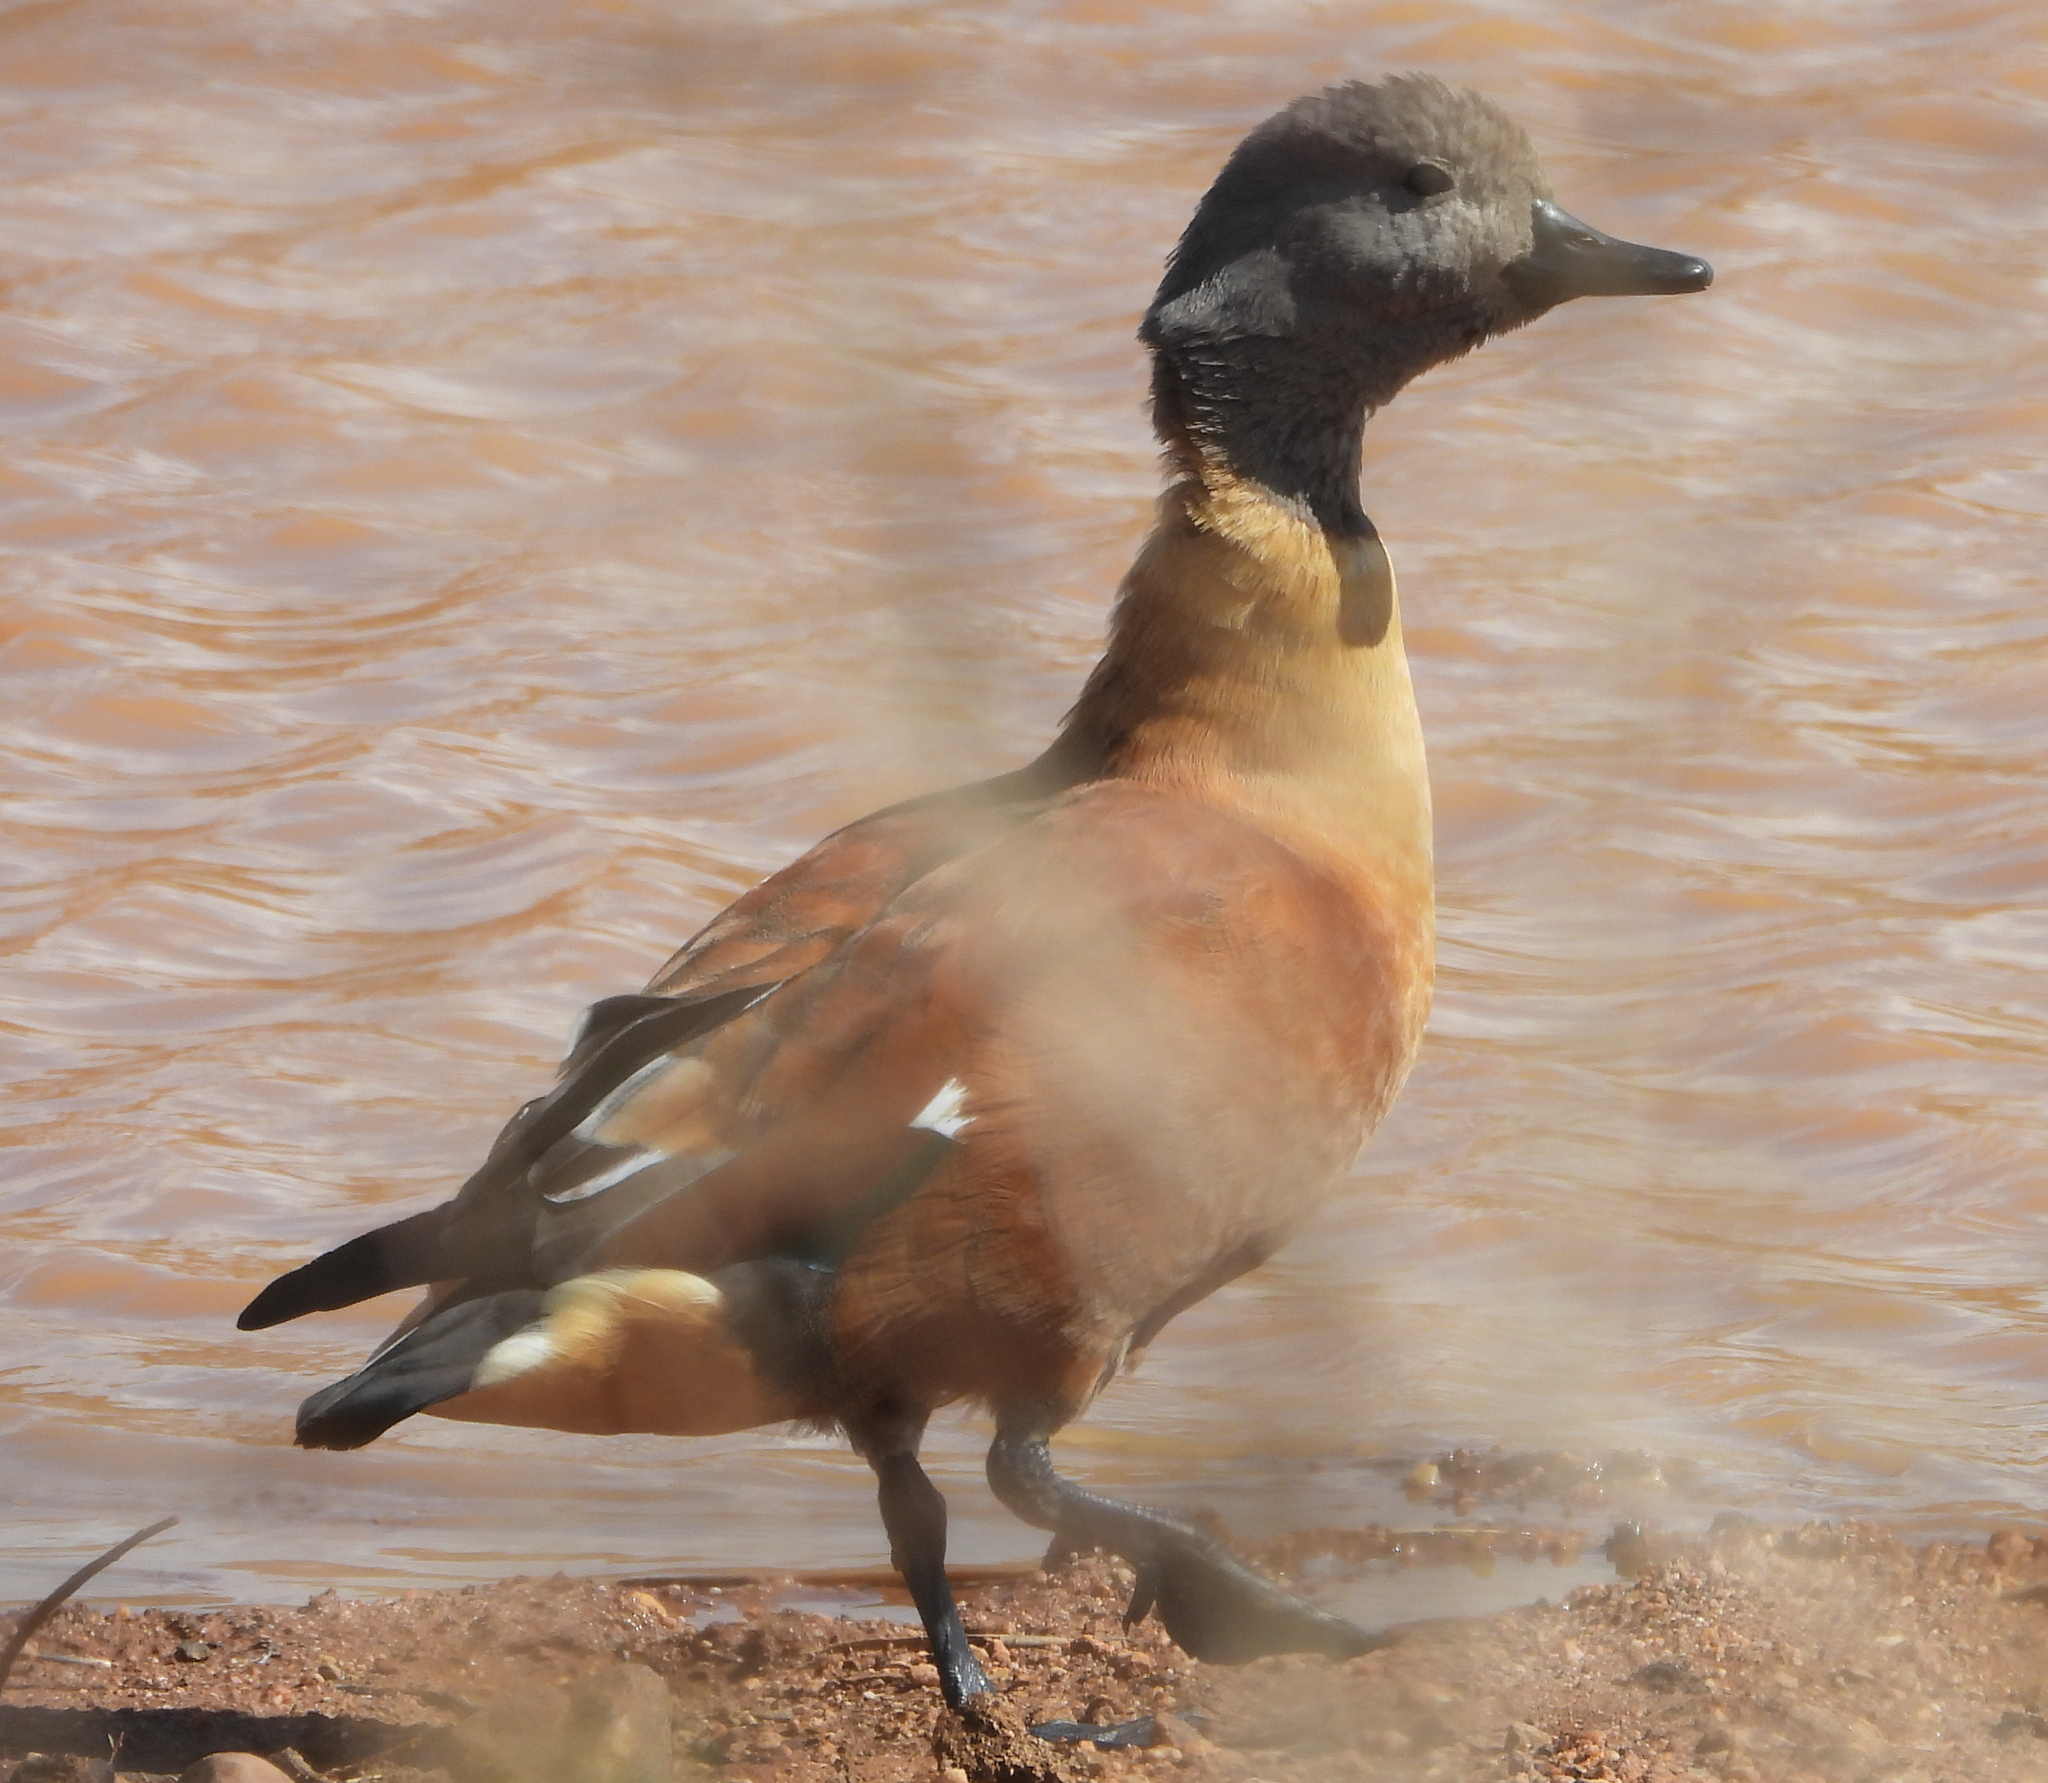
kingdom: Animalia
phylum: Chordata
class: Aves
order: Anseriformes
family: Anatidae
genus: Tadorna
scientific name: Tadorna cana
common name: South african shelduck
